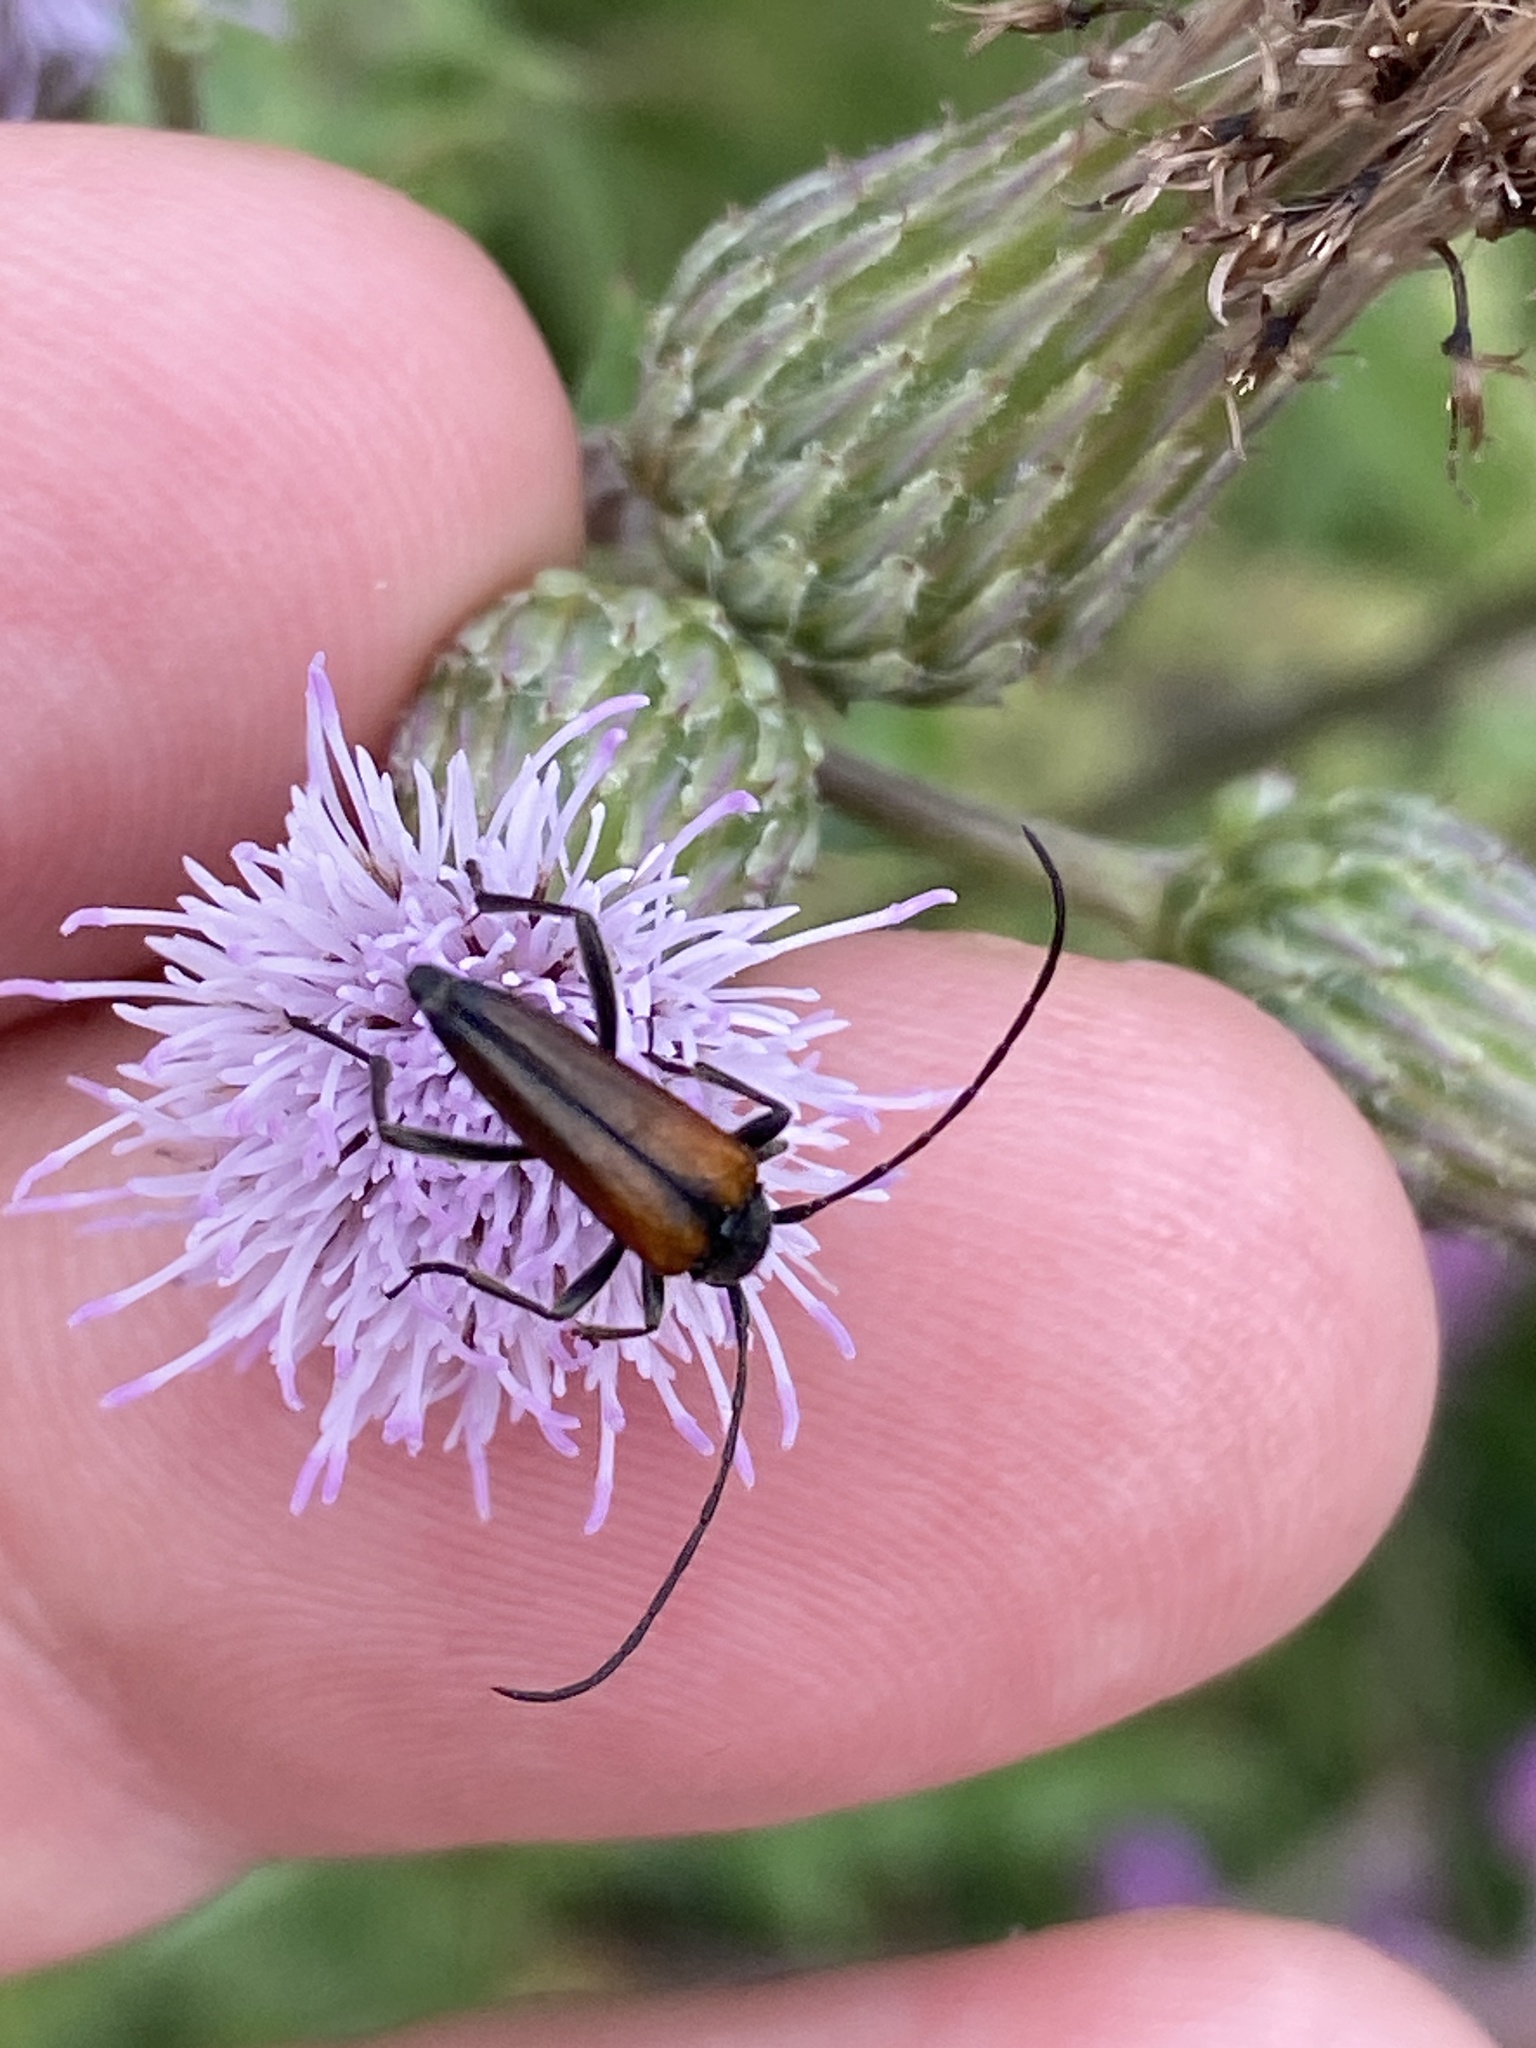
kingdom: Animalia
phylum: Arthropoda
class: Insecta
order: Coleoptera
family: Cerambycidae
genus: Stenurella
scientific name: Stenurella melanura
